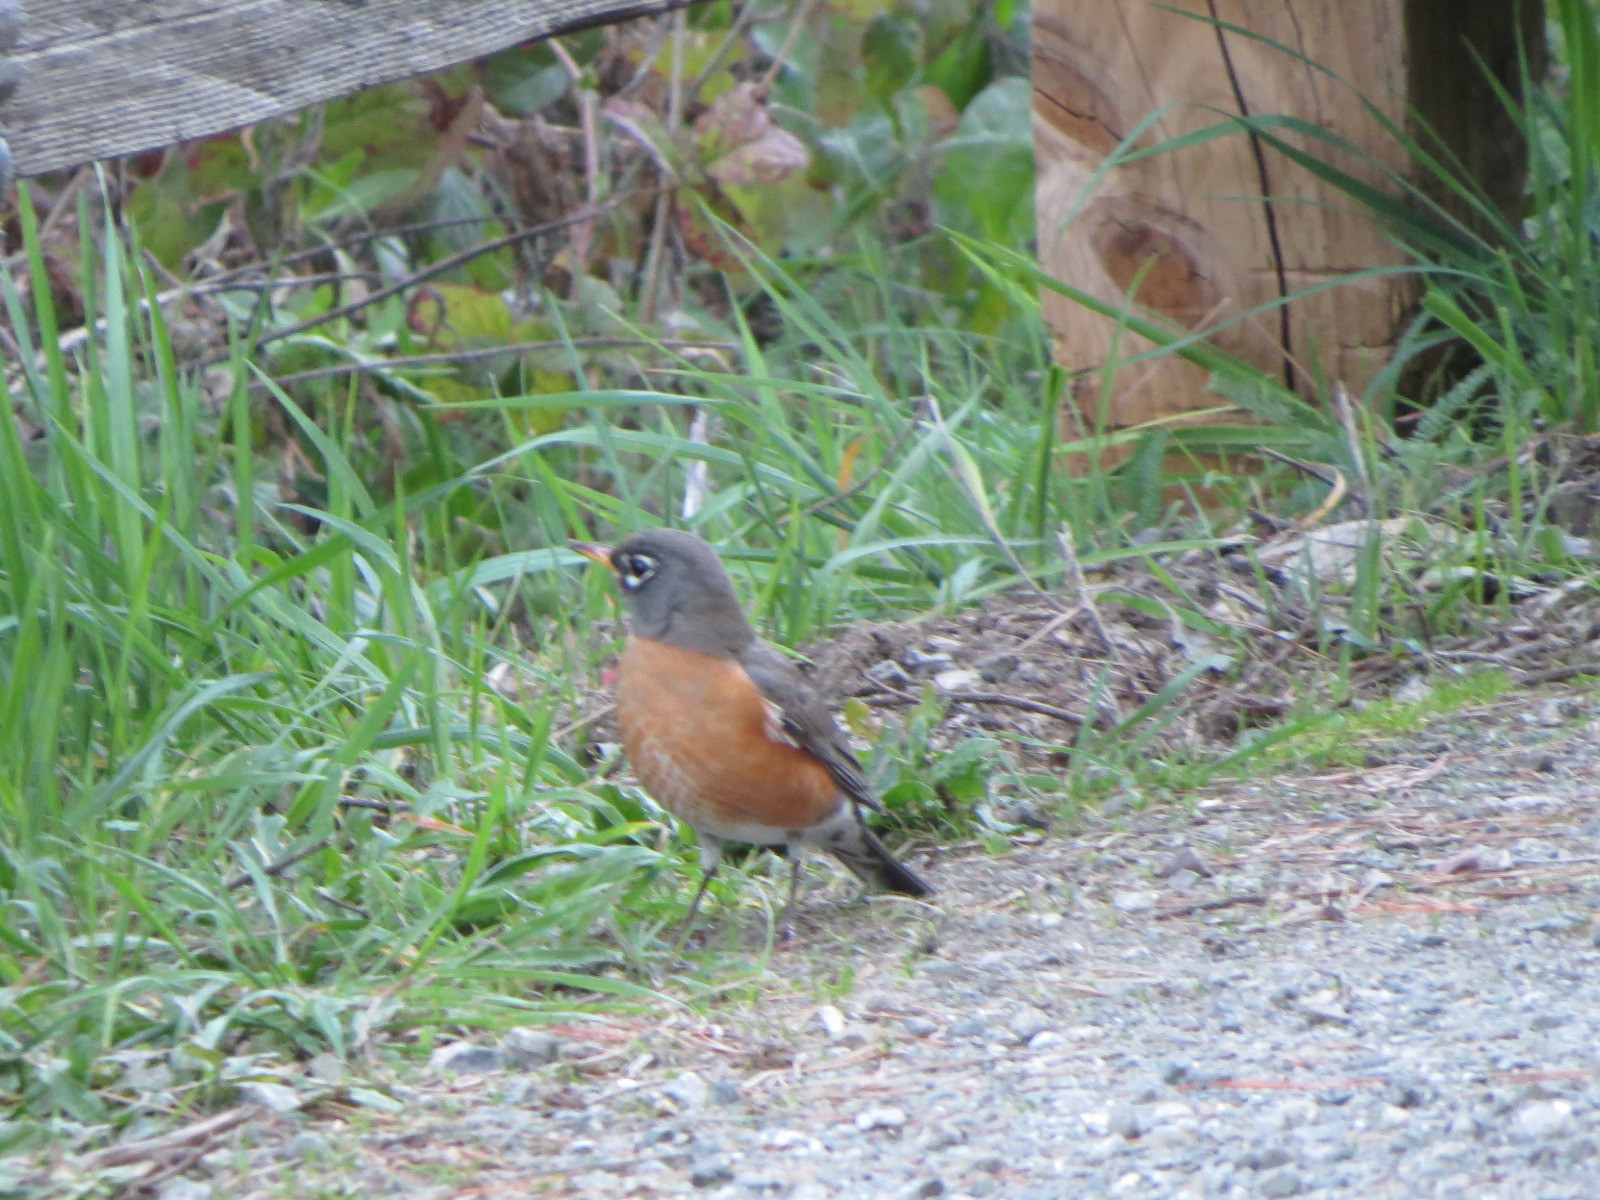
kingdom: Animalia
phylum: Chordata
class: Aves
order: Passeriformes
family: Turdidae
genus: Turdus
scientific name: Turdus migratorius
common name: American robin
